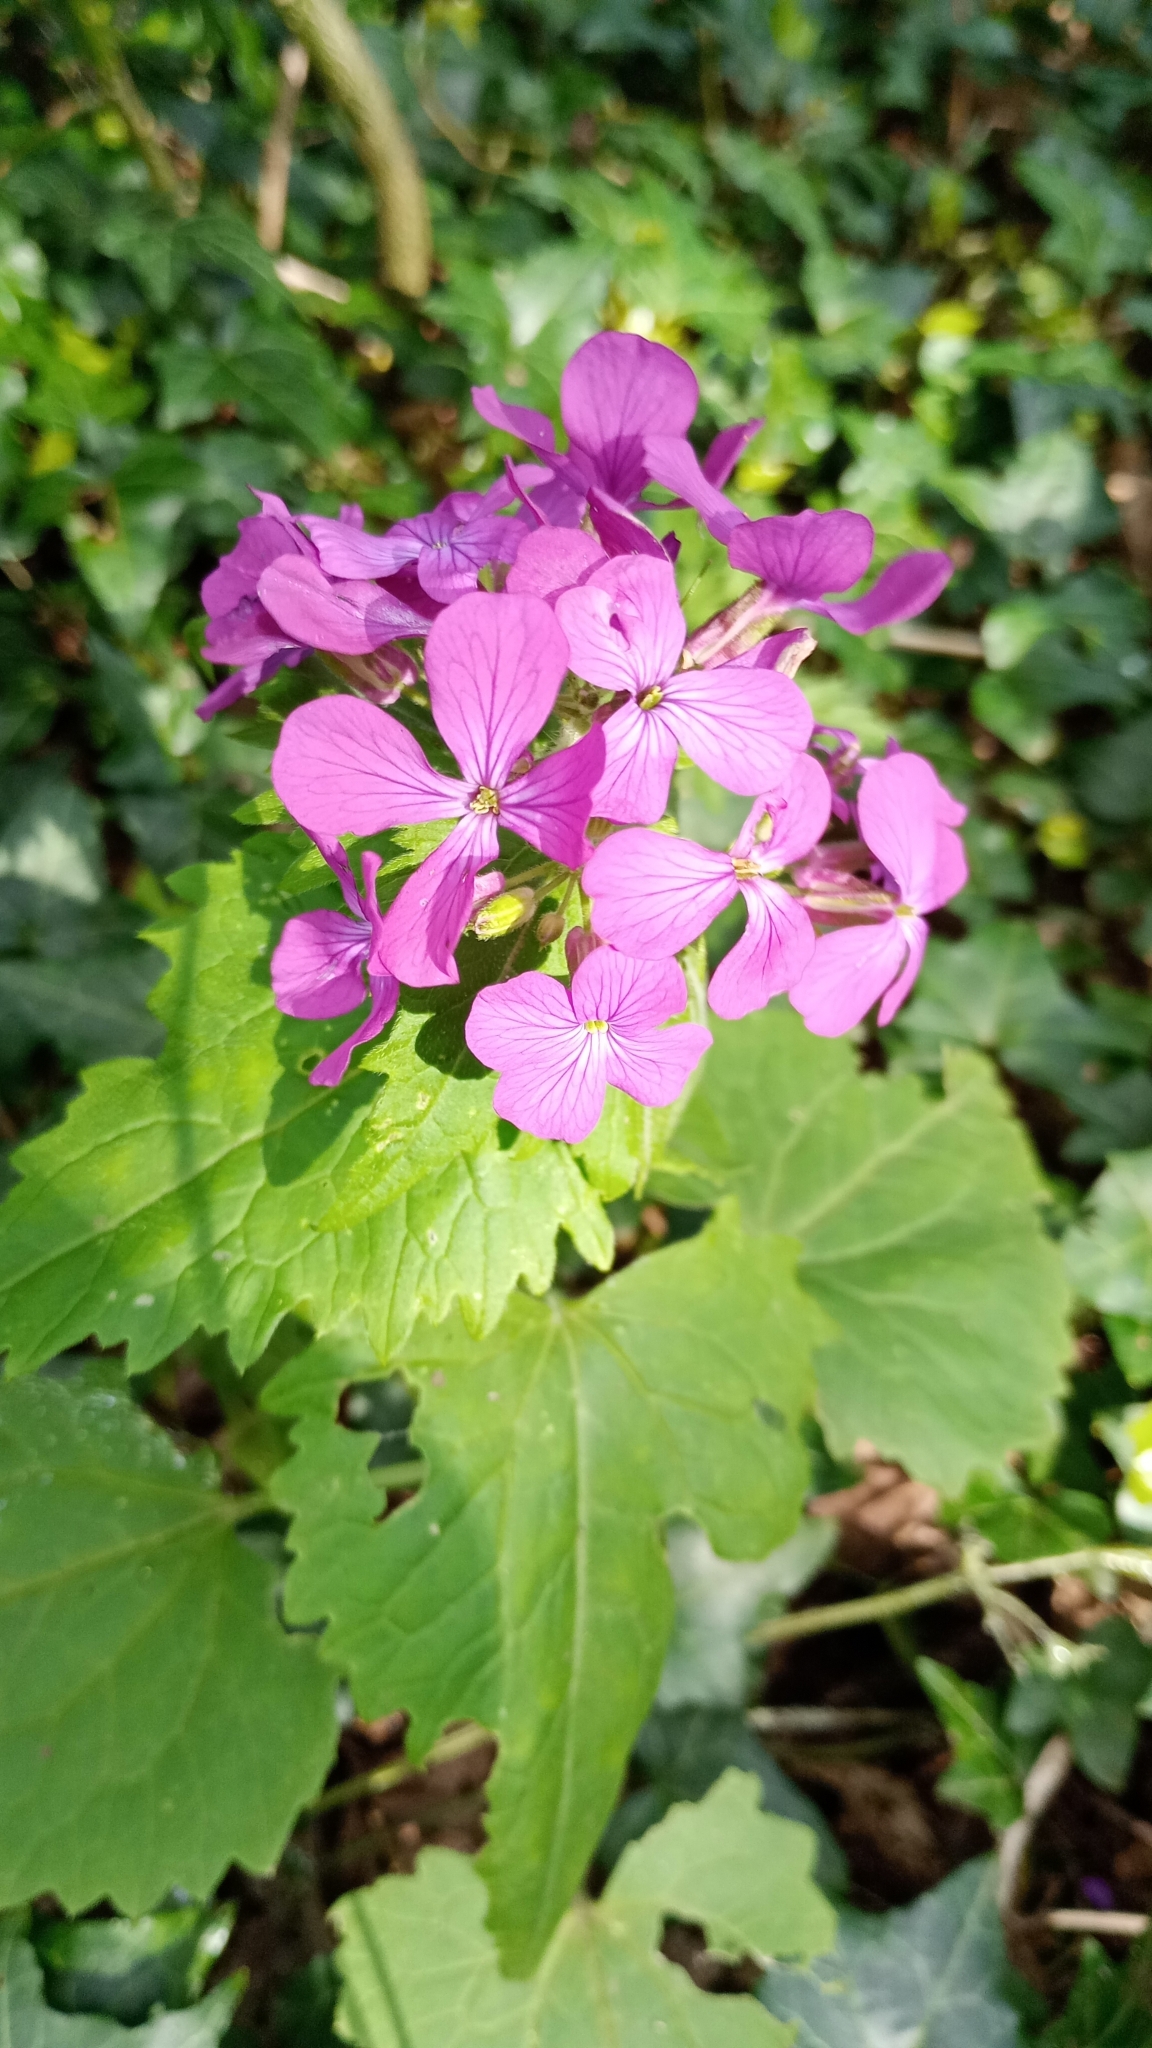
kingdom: Plantae
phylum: Tracheophyta
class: Magnoliopsida
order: Brassicales
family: Brassicaceae
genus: Lunaria
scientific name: Lunaria annua
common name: Honesty
